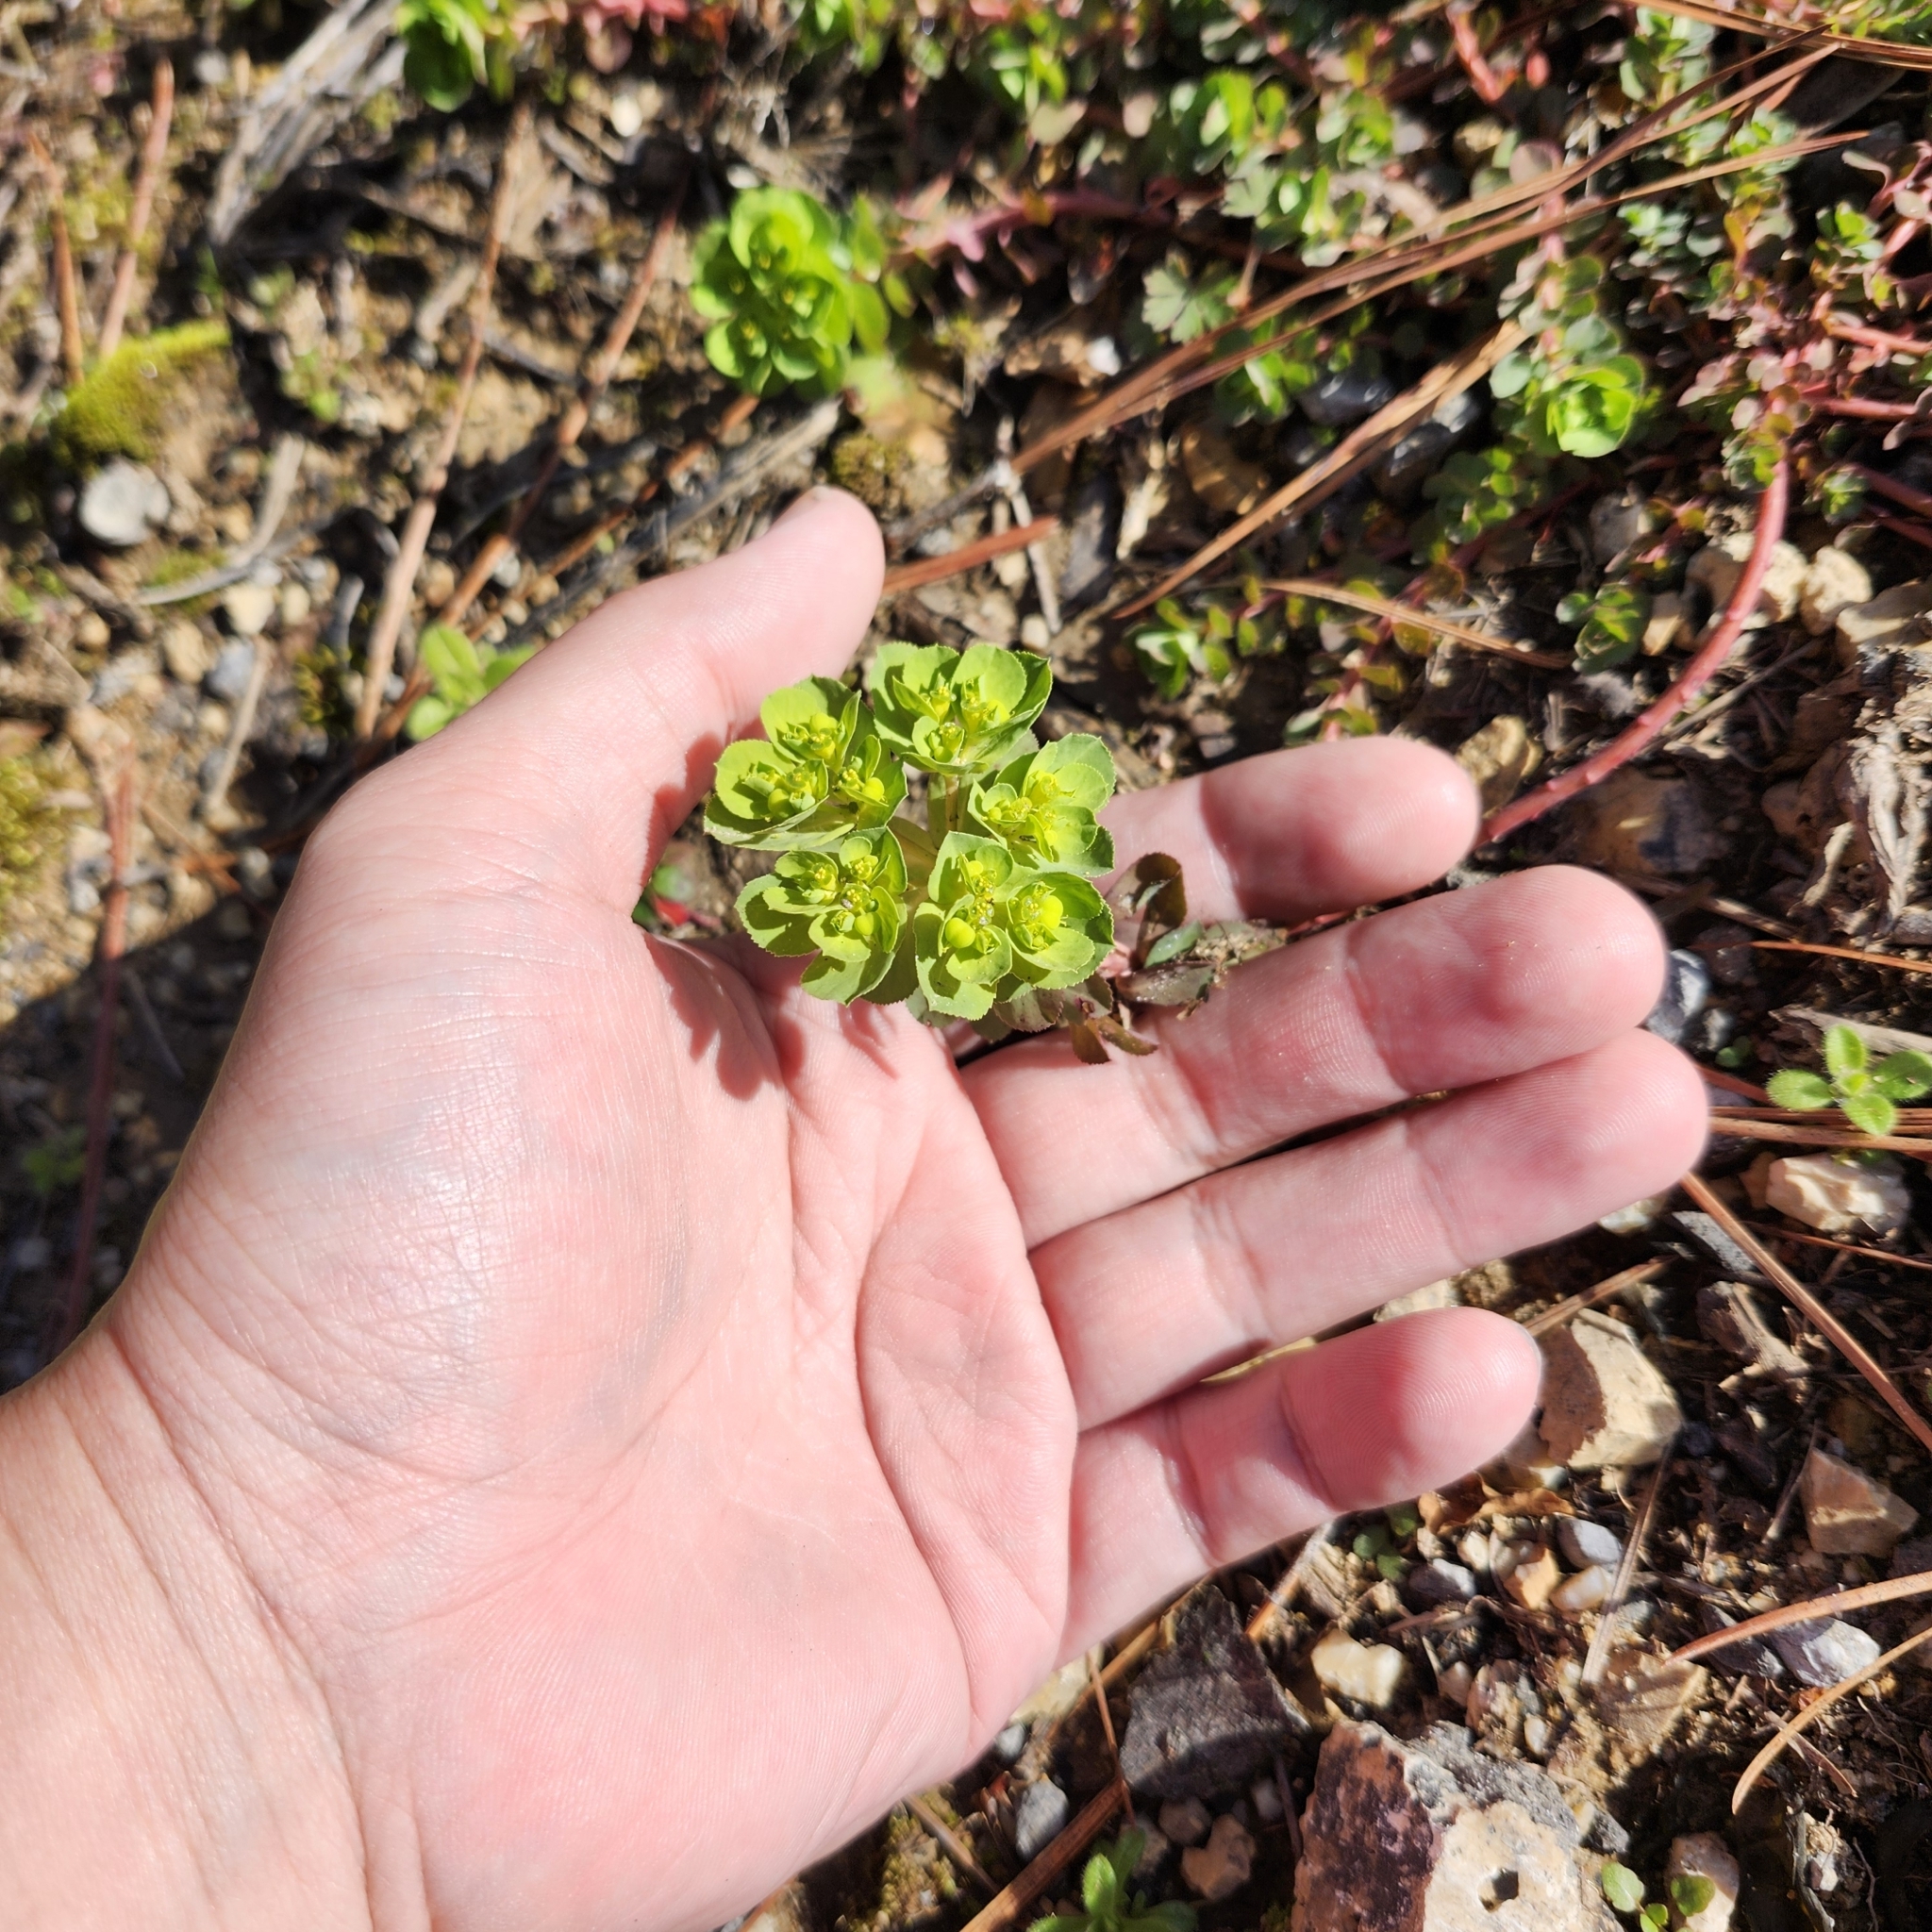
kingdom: Plantae
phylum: Tracheophyta
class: Magnoliopsida
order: Malpighiales
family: Euphorbiaceae
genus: Euphorbia
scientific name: Euphorbia helioscopia
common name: Sun spurge
